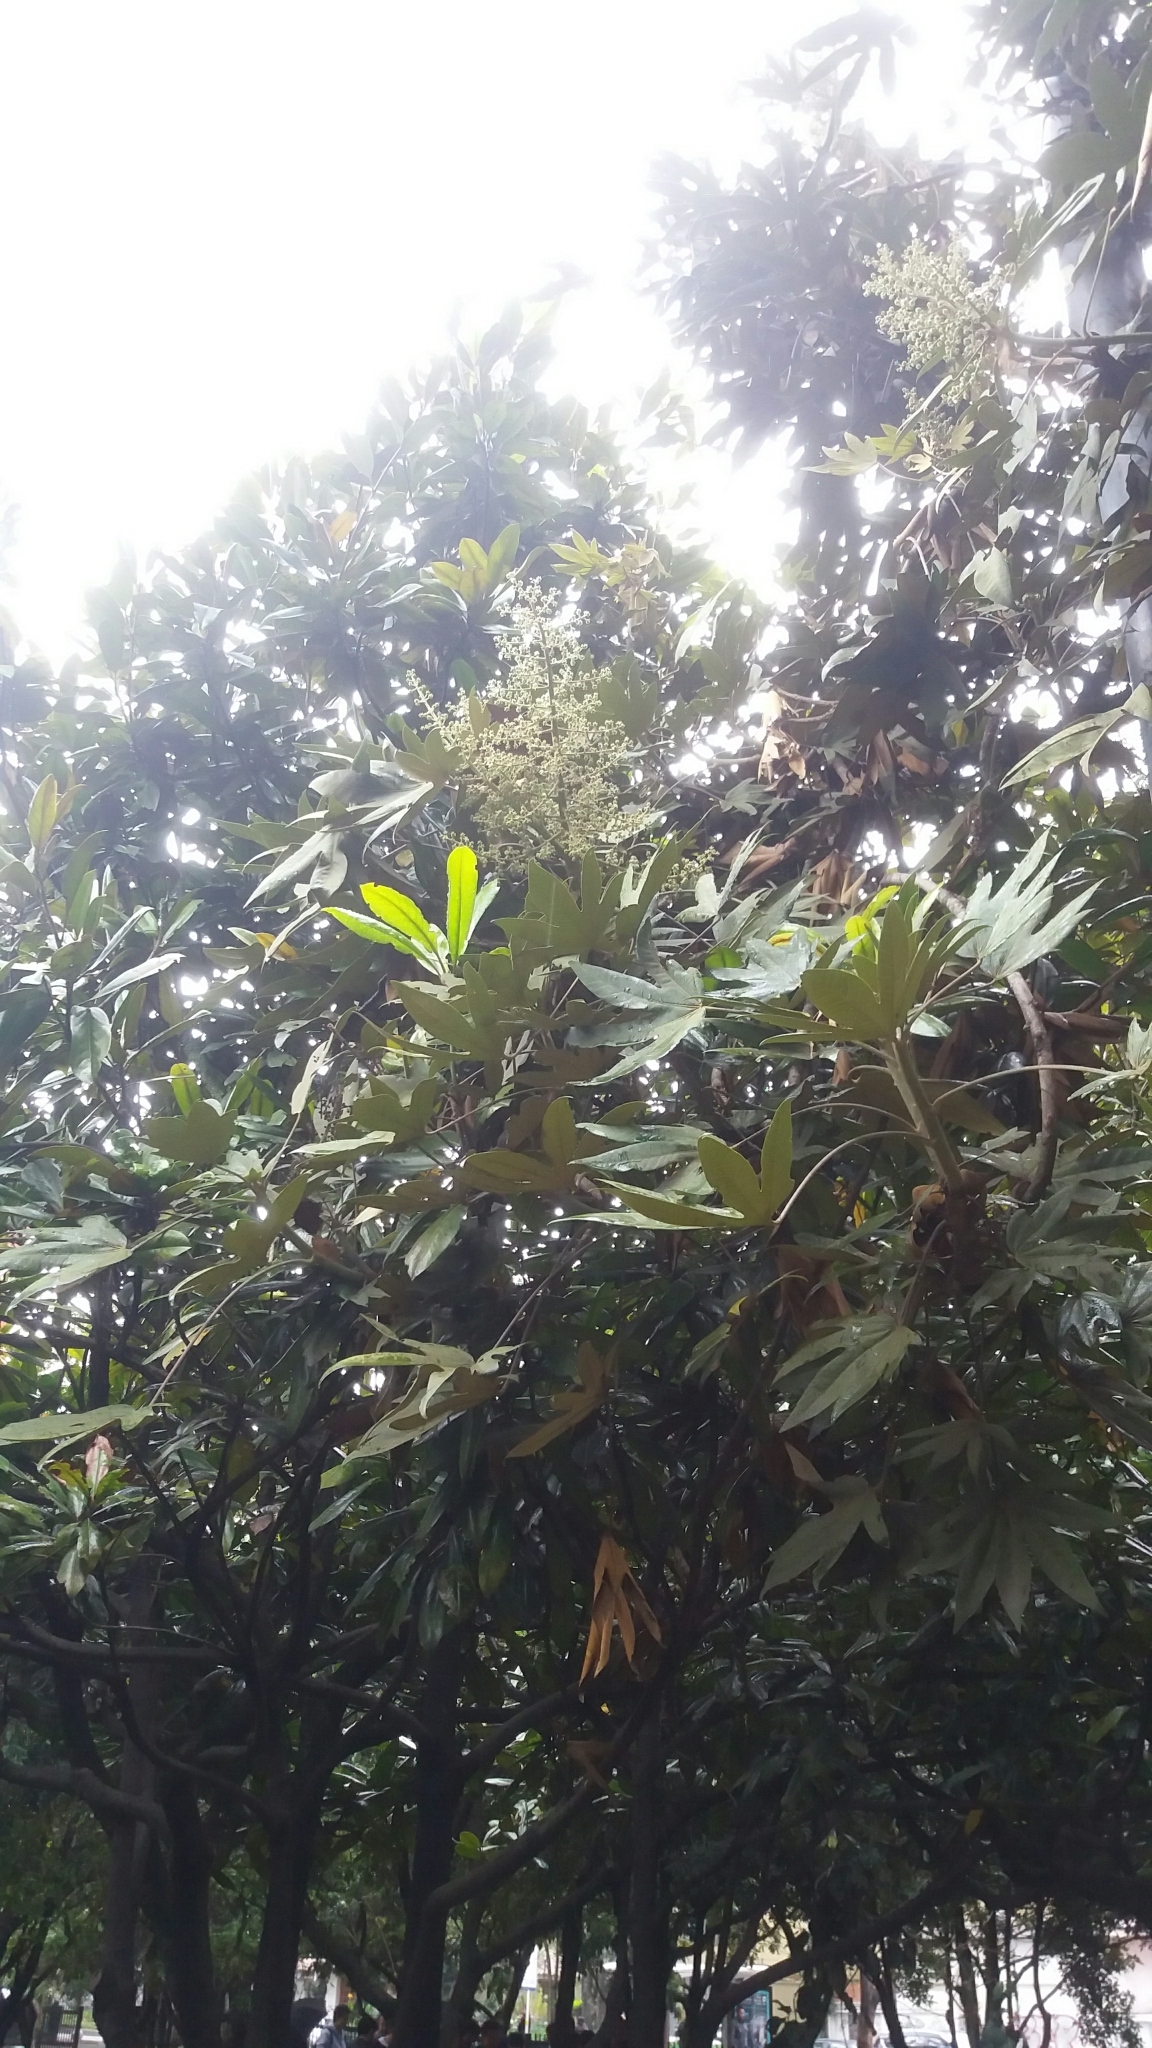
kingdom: Plantae
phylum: Tracheophyta
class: Magnoliopsida
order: Apiales
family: Araliaceae
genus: Oreopanax
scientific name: Oreopanax incisus
